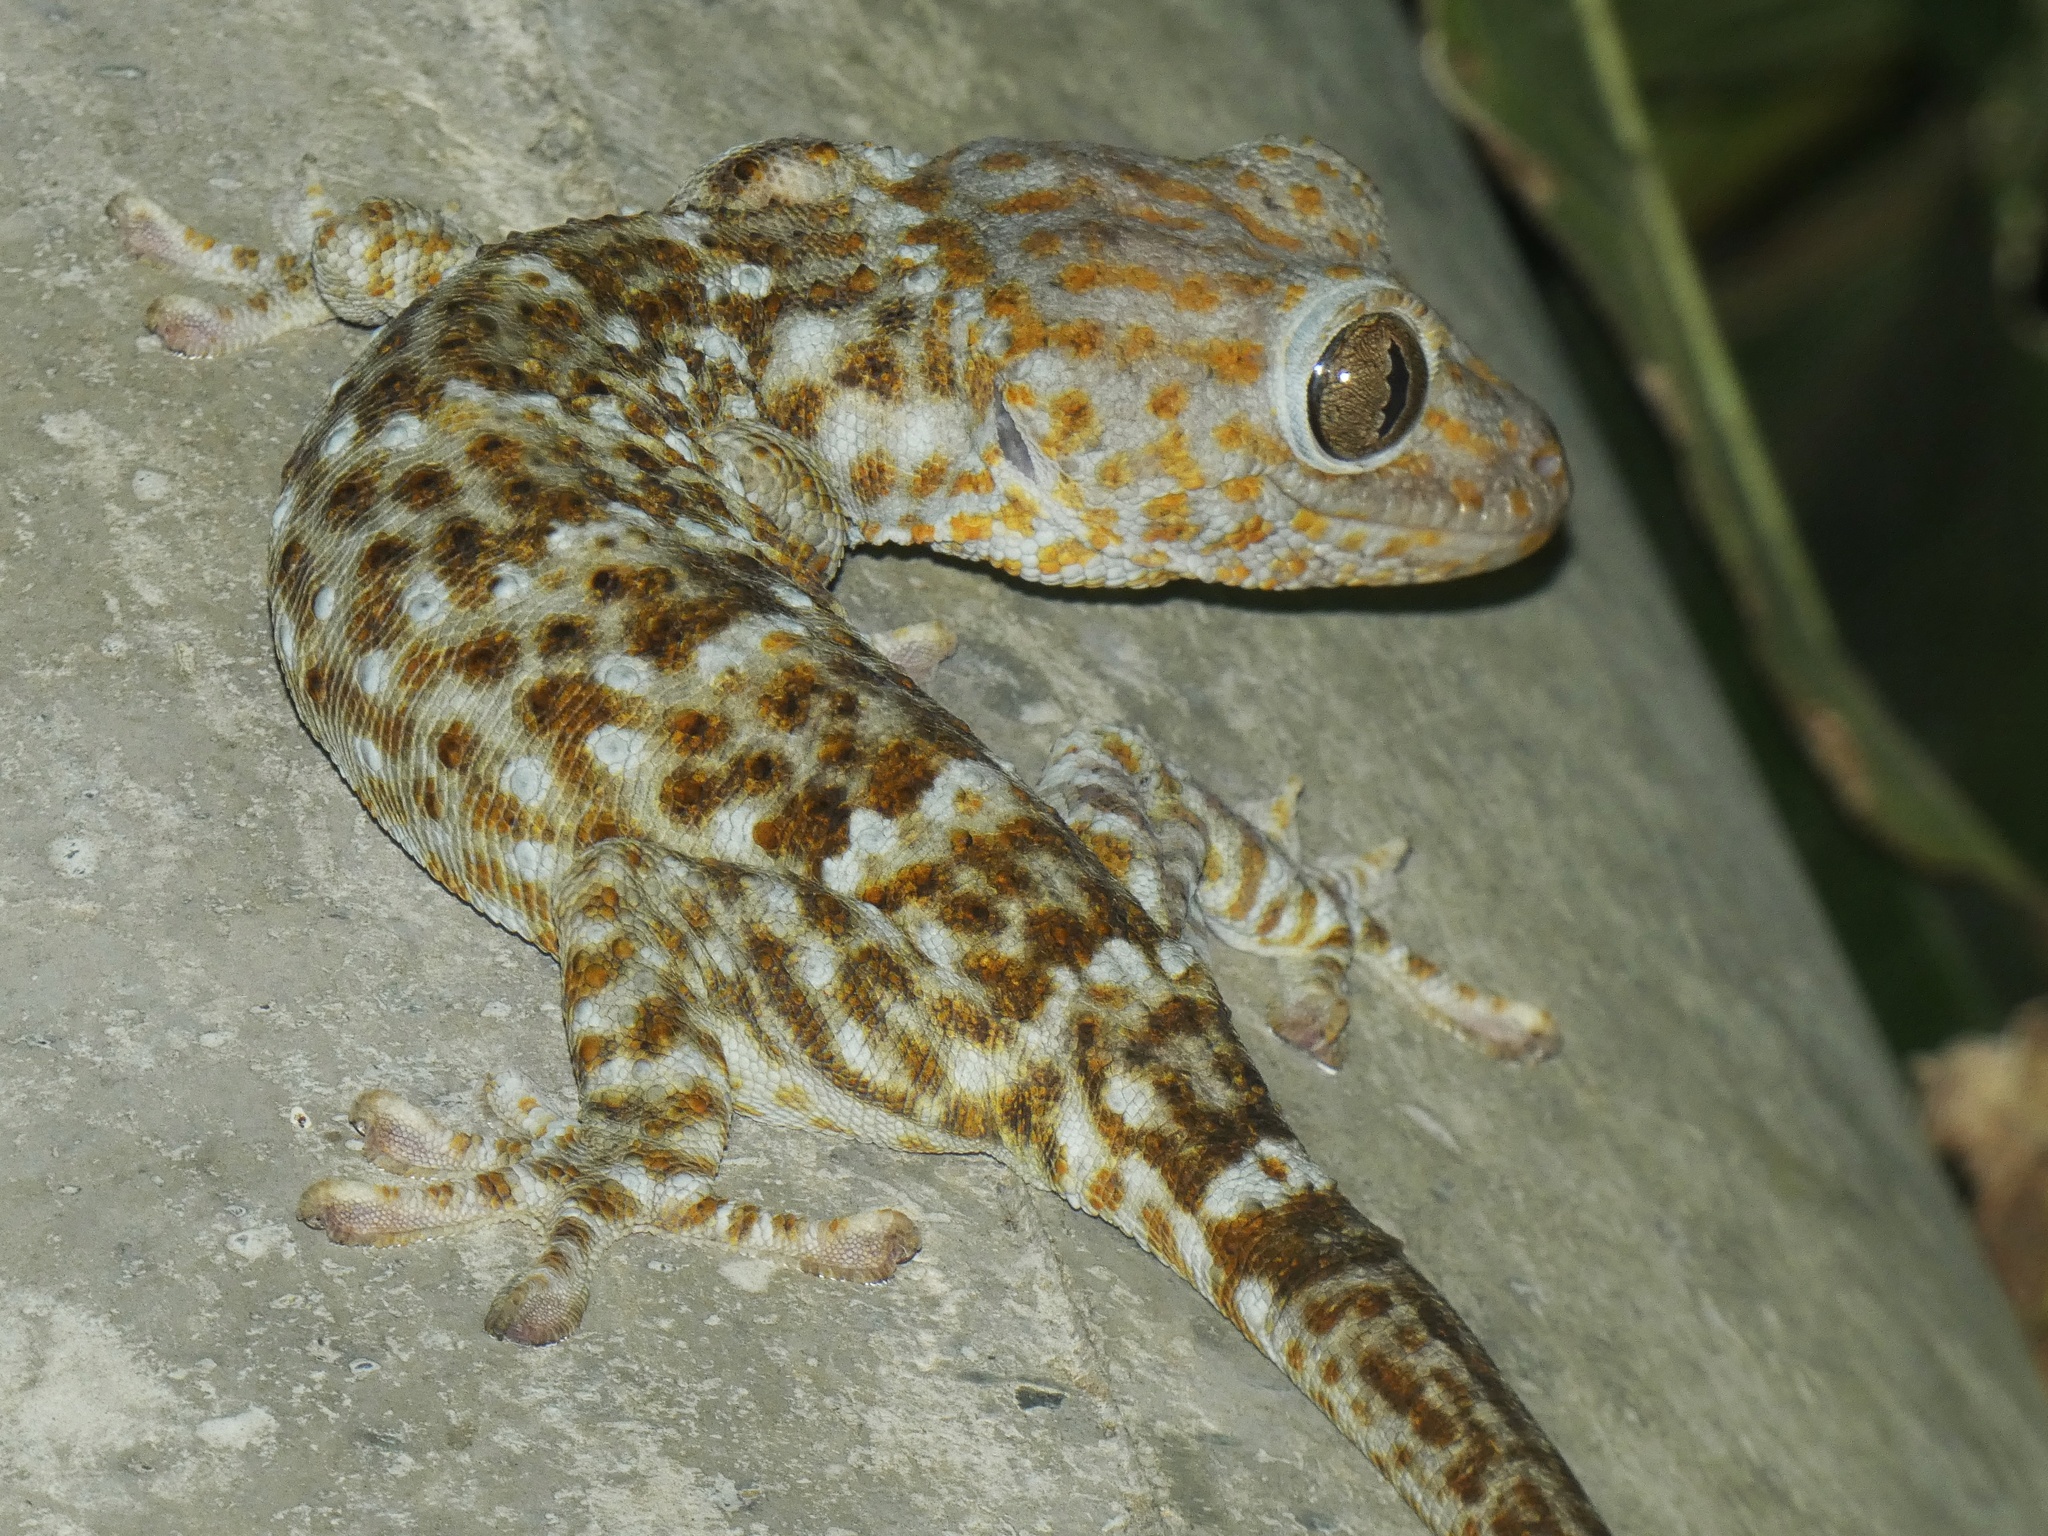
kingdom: Animalia
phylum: Chordata
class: Squamata
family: Gekkonidae
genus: Gekko
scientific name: Gekko gecko
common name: Tokay gecko
